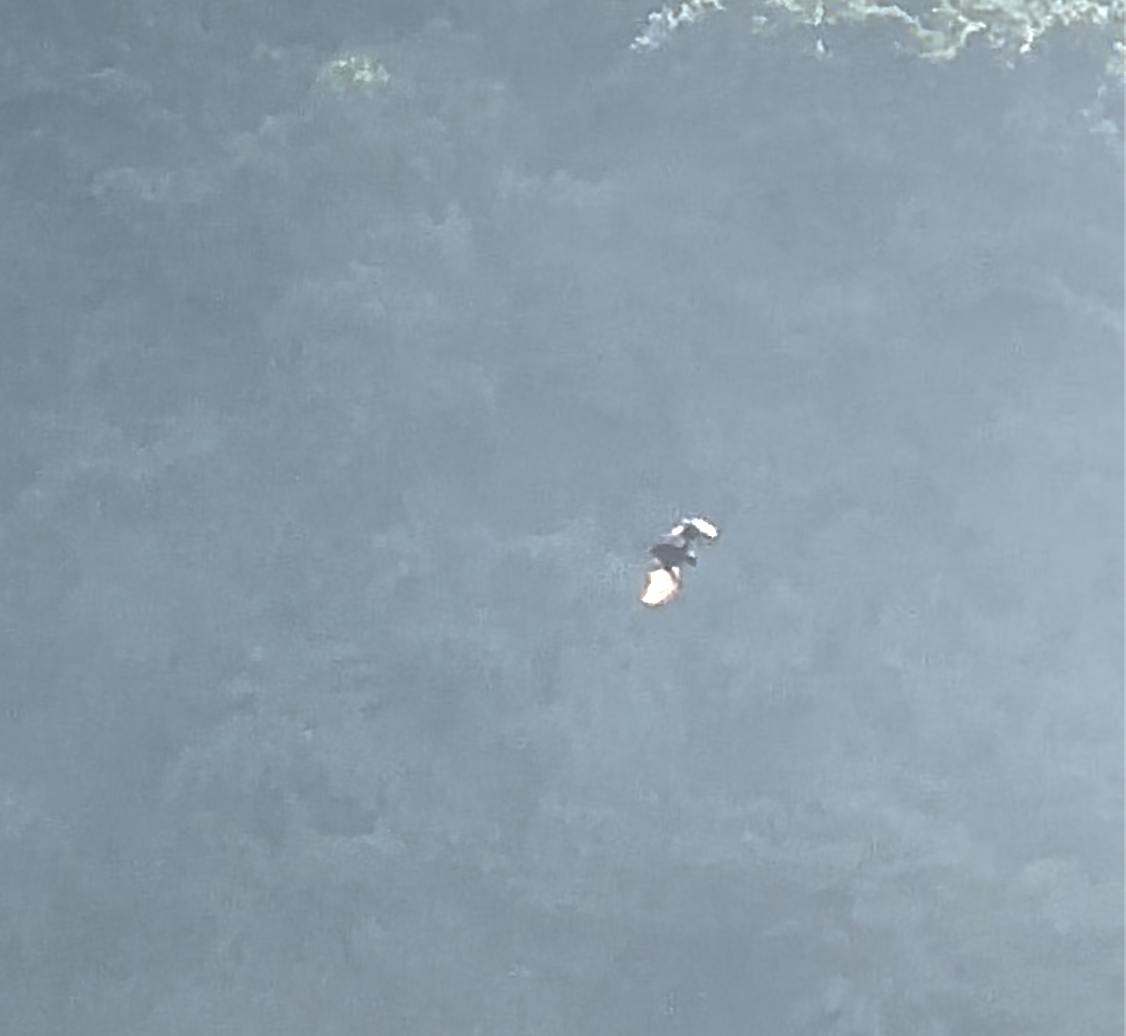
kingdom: Animalia
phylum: Chordata
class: Mammalia
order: Chiroptera
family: Pteropodidae
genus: Pteropus
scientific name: Pteropus tonganus
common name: Pacific flying fox
